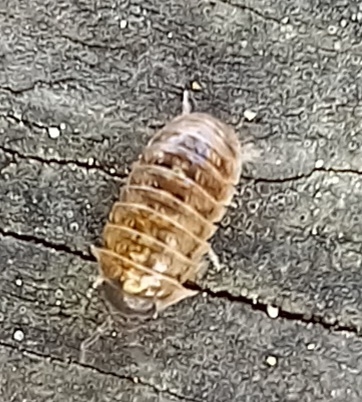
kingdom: Animalia
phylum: Arthropoda
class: Malacostraca
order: Isopoda
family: Armadillidiidae
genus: Armadillidium
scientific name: Armadillidium vulgare
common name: Common pill woodlouse
